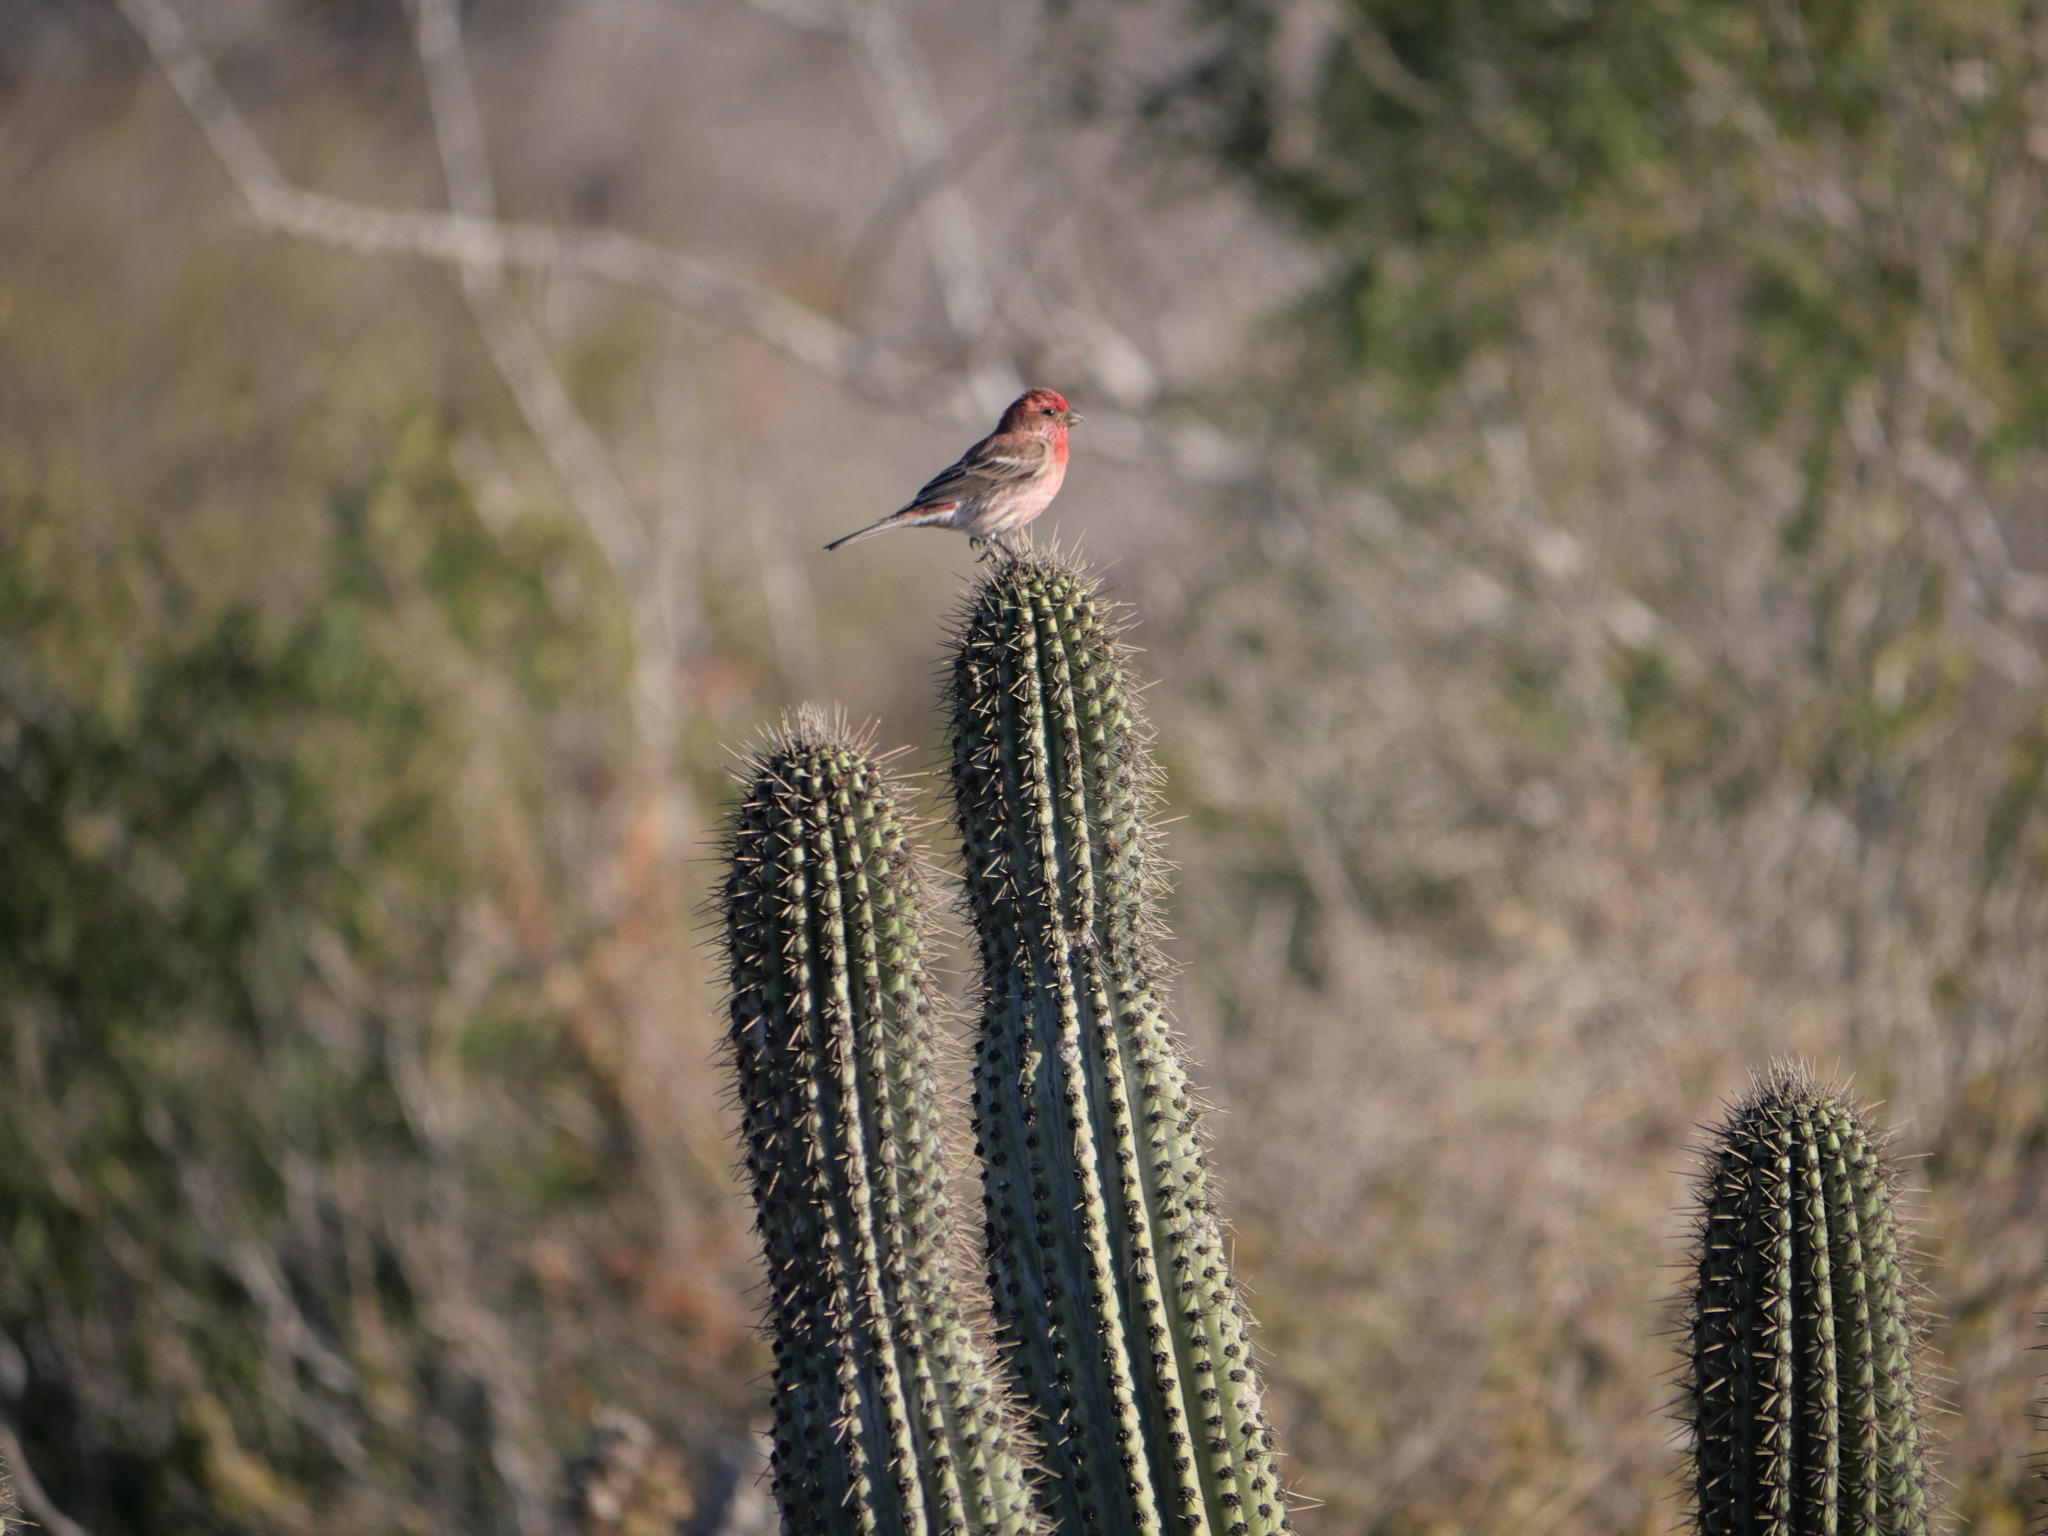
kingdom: Animalia
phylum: Chordata
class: Aves
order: Passeriformes
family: Fringillidae
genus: Haemorhous
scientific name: Haemorhous mexicanus
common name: House finch
